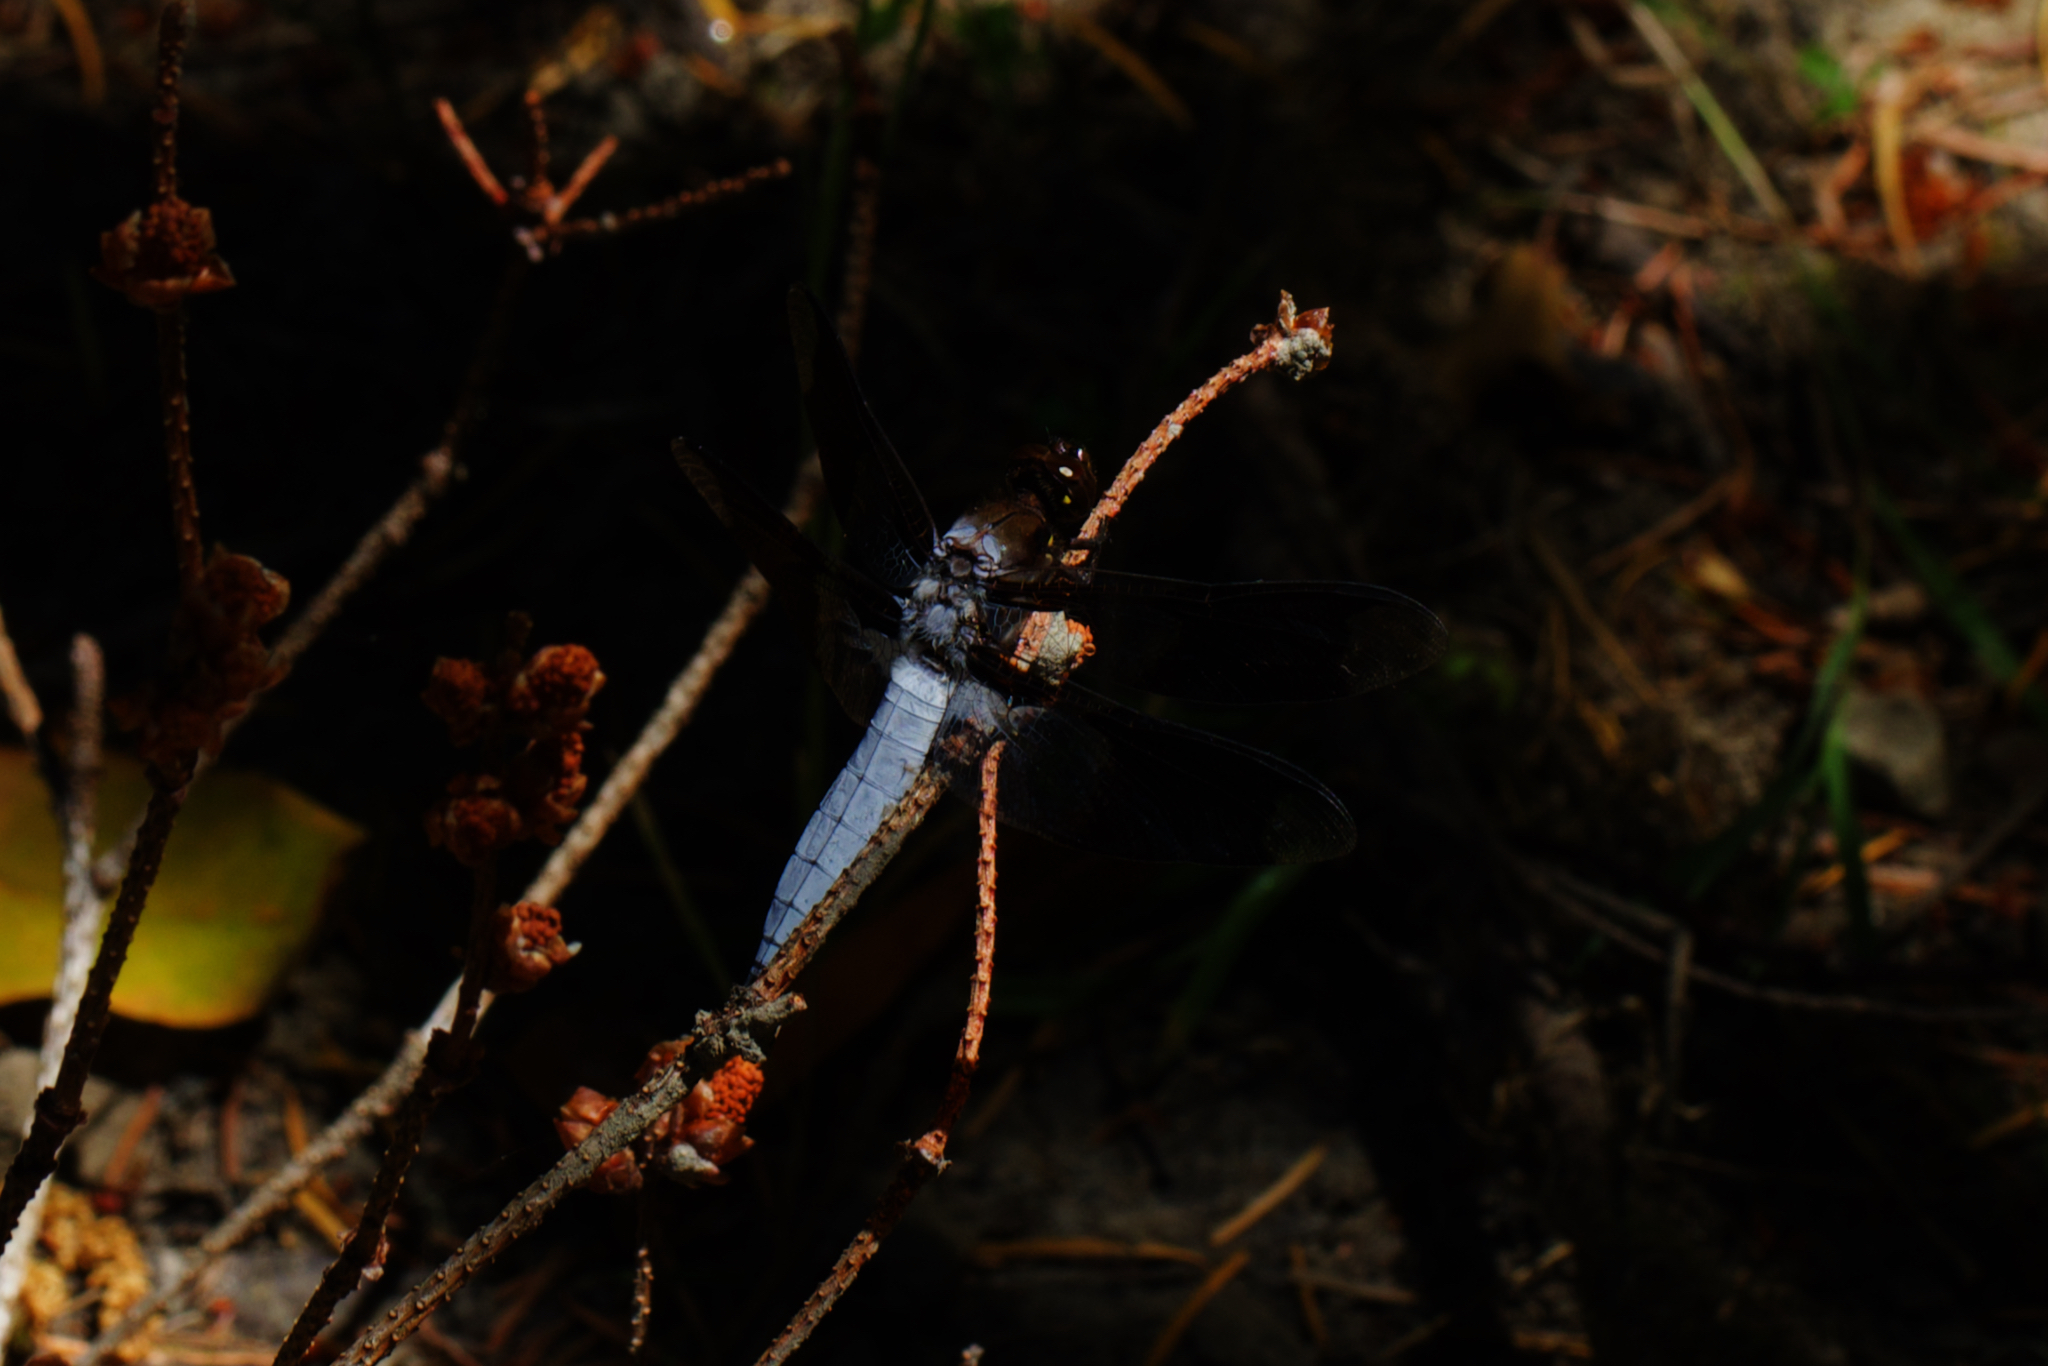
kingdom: Animalia
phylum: Arthropoda
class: Insecta
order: Odonata
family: Libellulidae
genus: Plathemis
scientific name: Plathemis lydia
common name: Common whitetail
